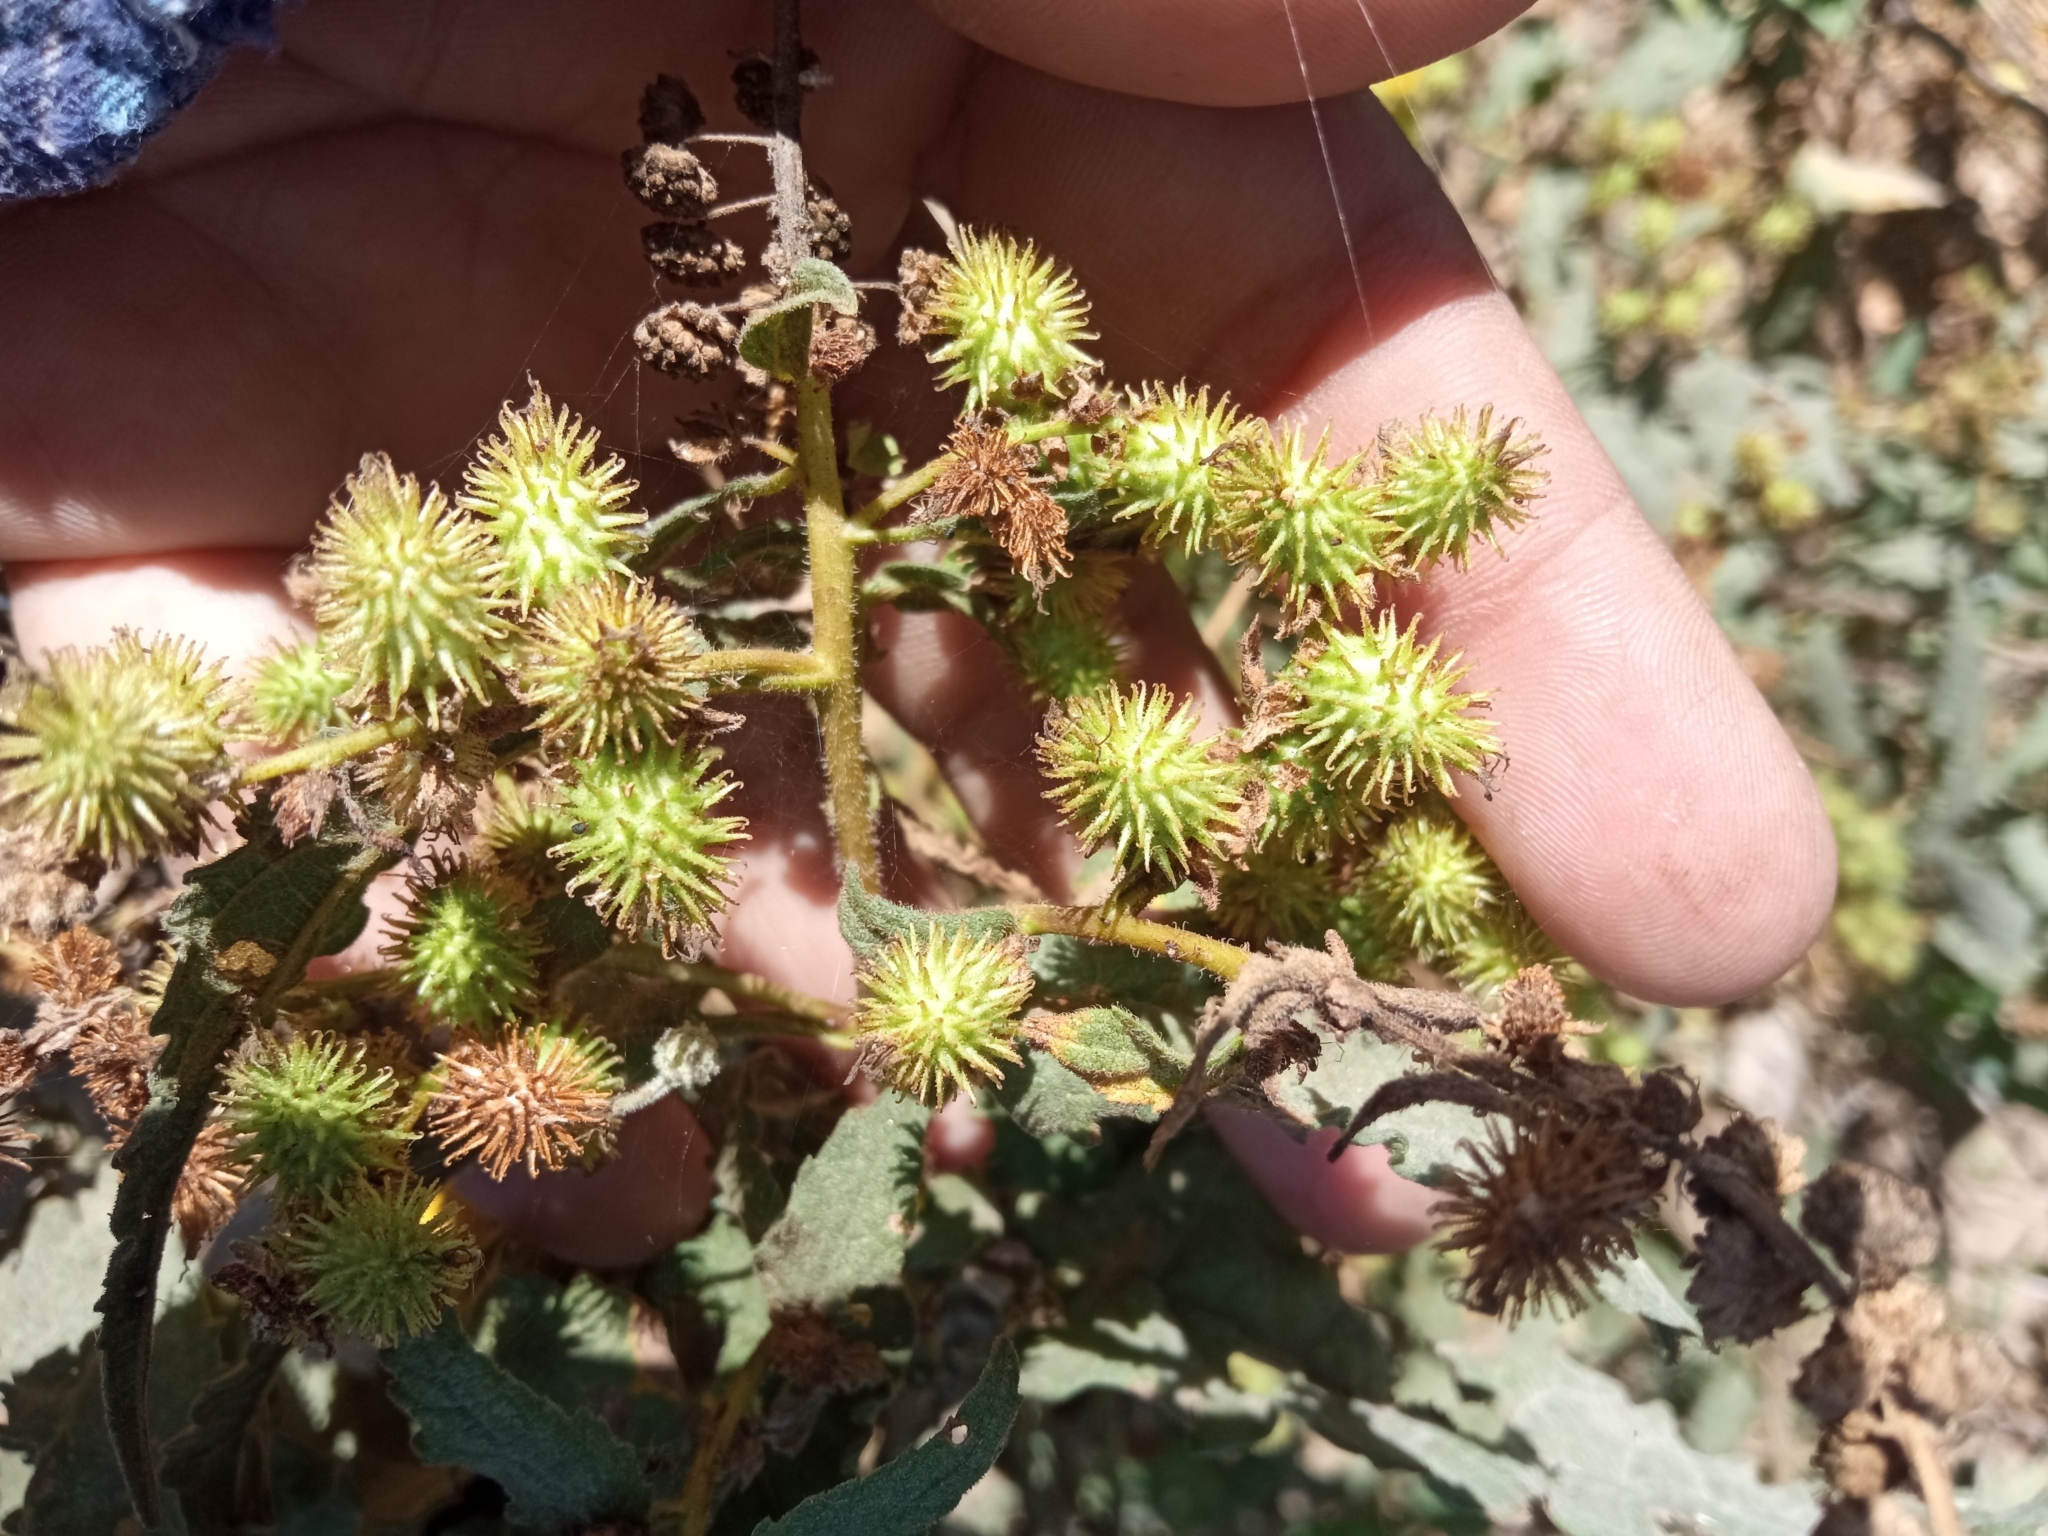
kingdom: Plantae
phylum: Tracheophyta
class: Magnoliopsida
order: Asterales
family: Asteraceae
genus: Xanthium
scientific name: Xanthium strumarium
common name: Rough cocklebur
